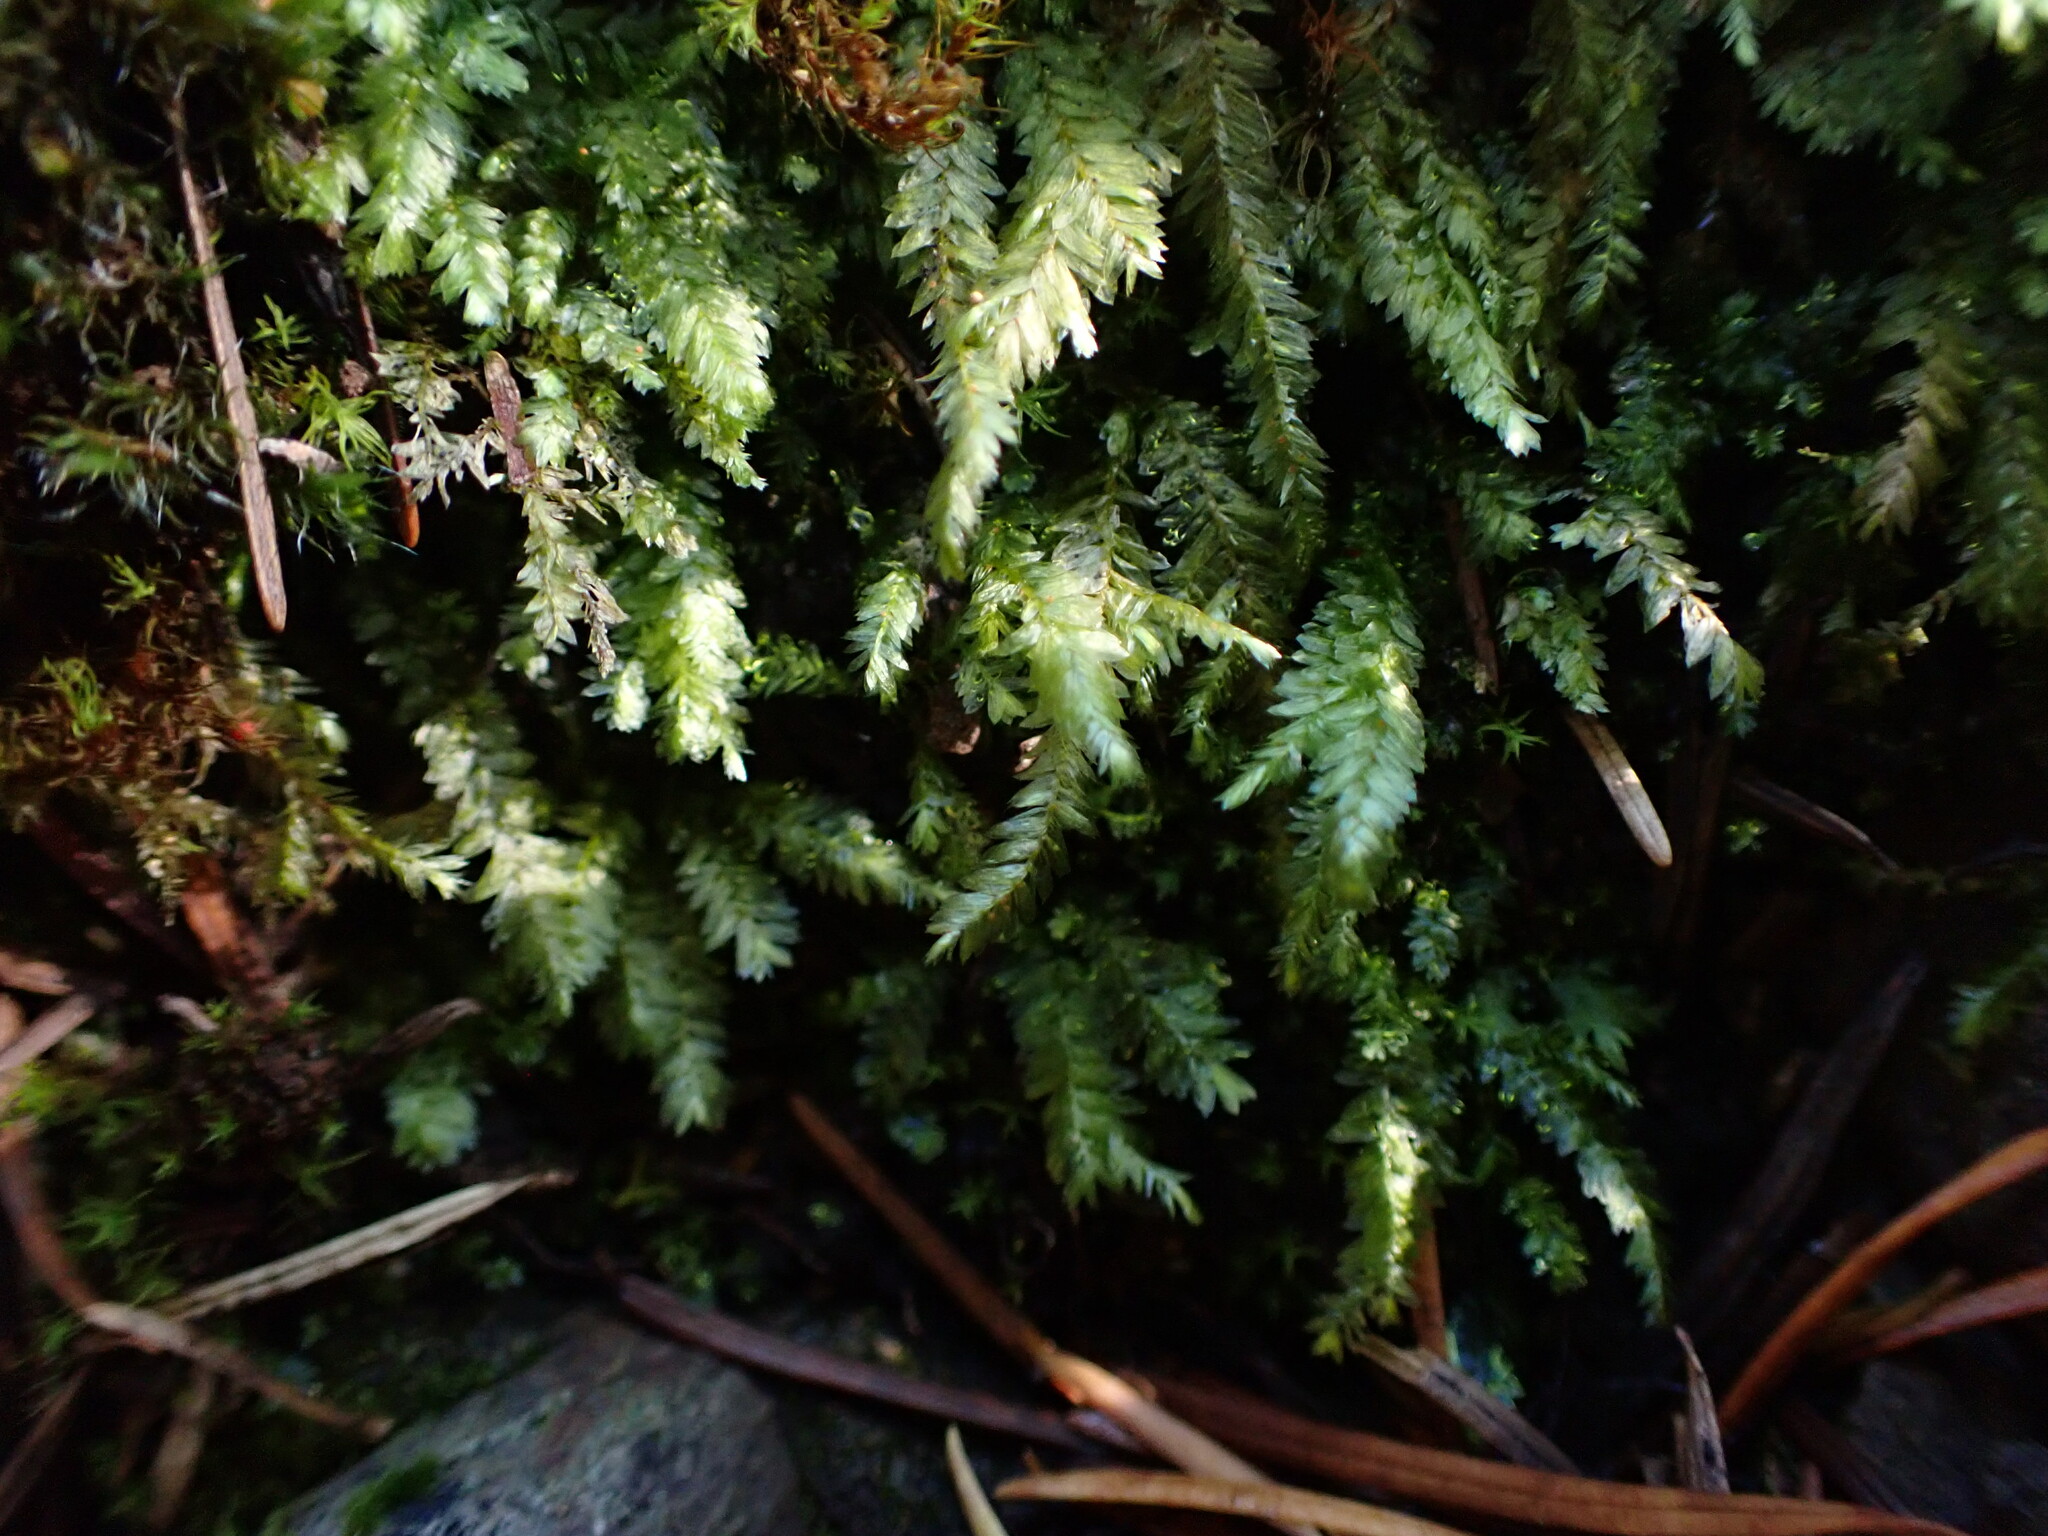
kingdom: Plantae
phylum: Bryophyta
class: Bryopsida
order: Hypnales
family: Neckeraceae
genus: Dannorrisia
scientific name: Dannorrisia bigelovii
